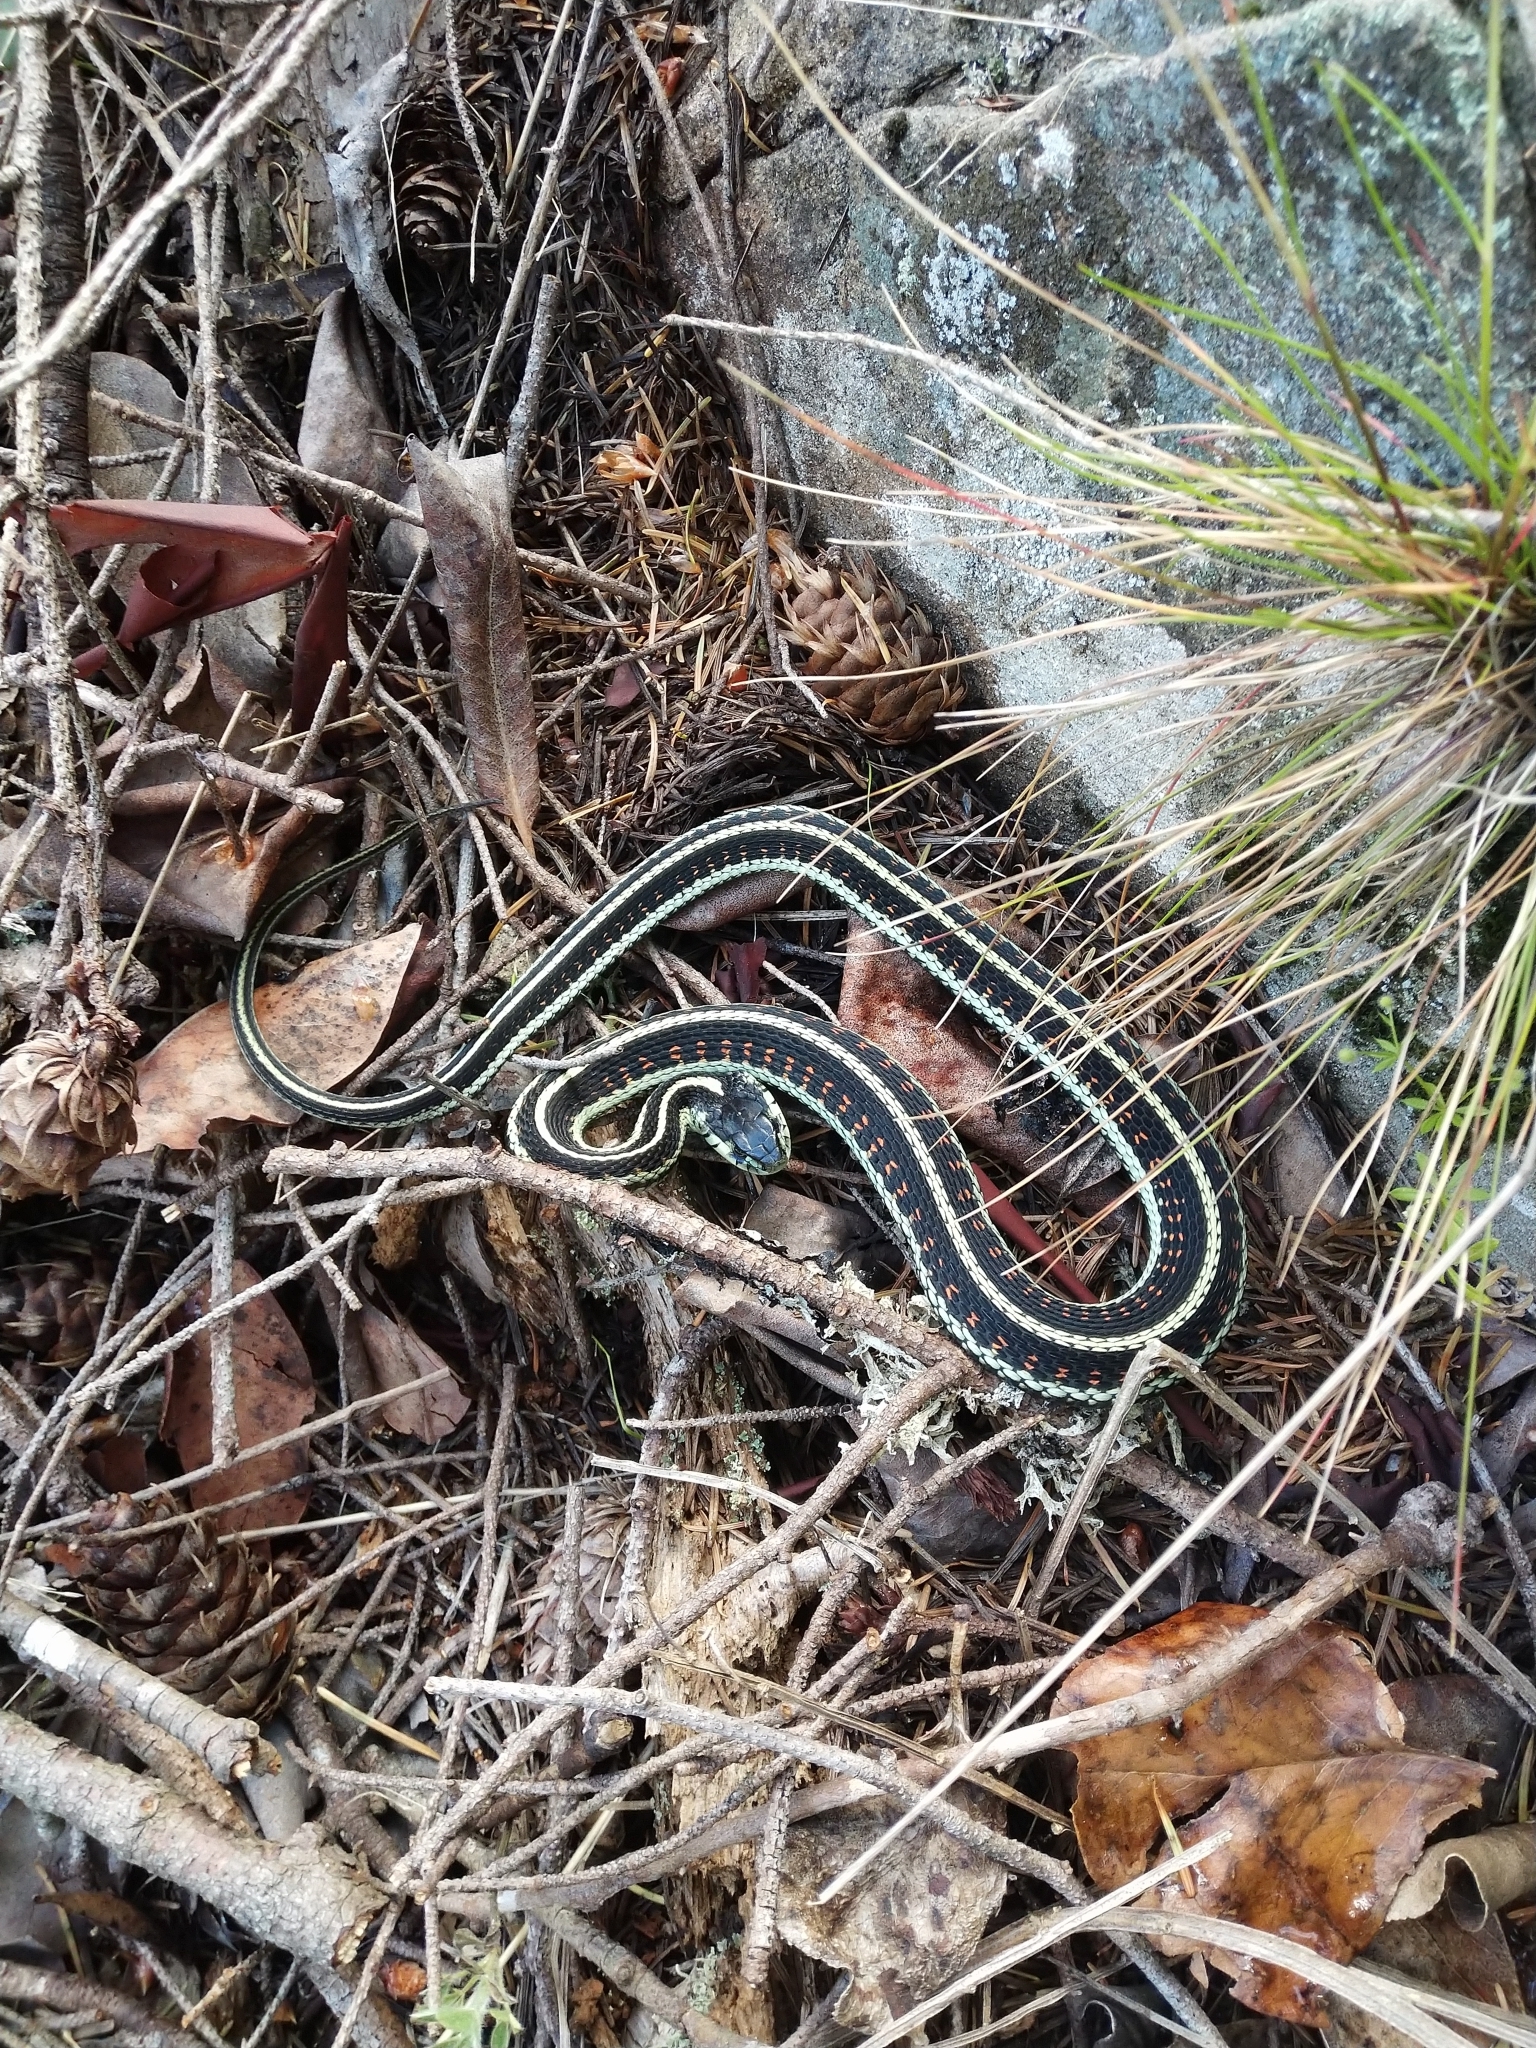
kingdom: Animalia
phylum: Chordata
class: Squamata
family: Colubridae
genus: Thamnophis
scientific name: Thamnophis sirtalis
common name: Common garter snake
